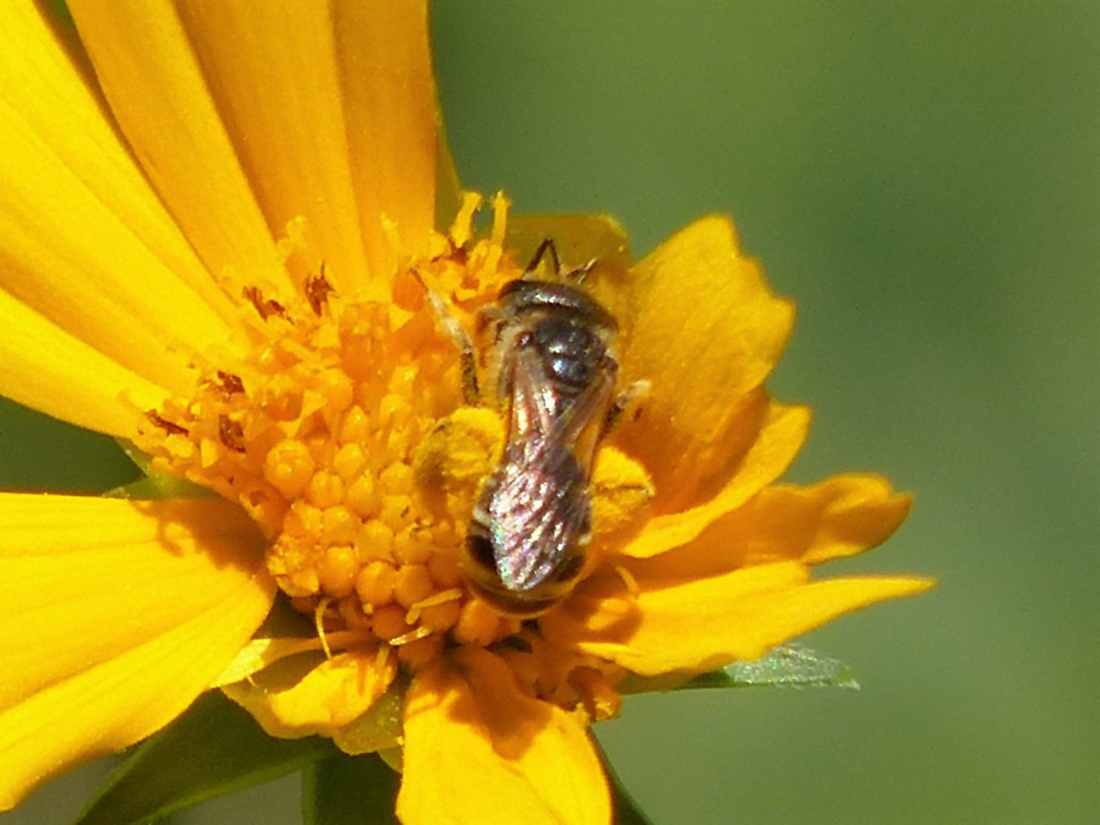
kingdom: Animalia
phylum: Arthropoda
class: Insecta
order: Hymenoptera
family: Halictidae
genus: Halictus
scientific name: Halictus ligatus
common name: Ligated furrow bee
